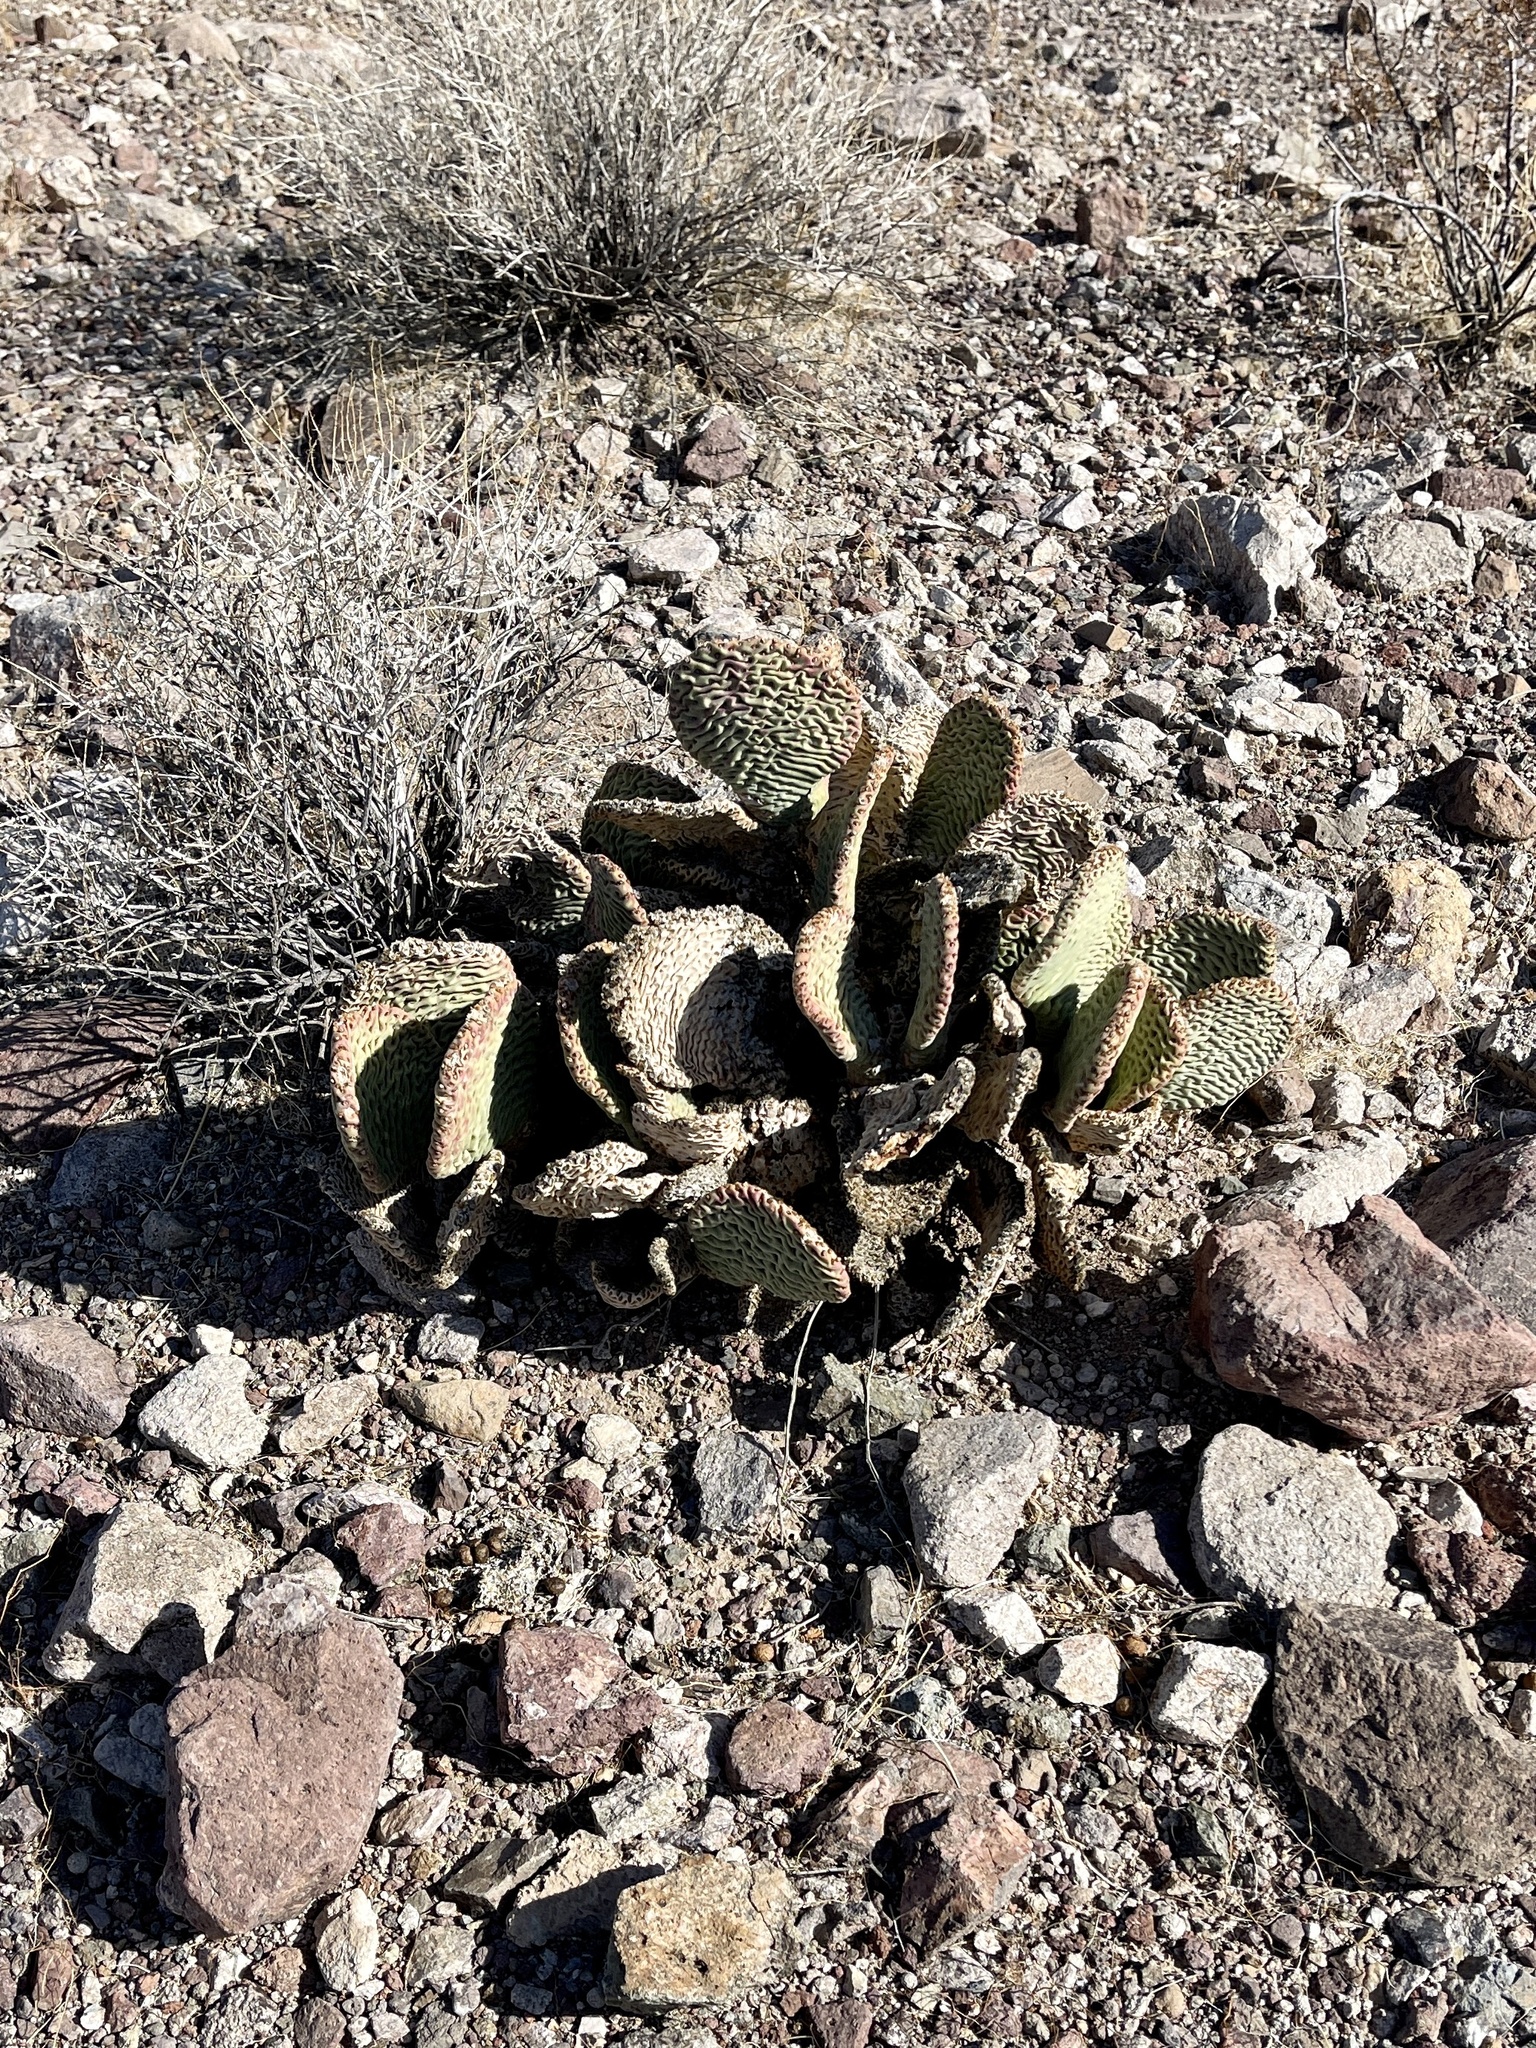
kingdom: Plantae
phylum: Tracheophyta
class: Magnoliopsida
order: Caryophyllales
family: Cactaceae
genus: Opuntia
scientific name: Opuntia basilaris
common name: Beavertail prickly-pear
